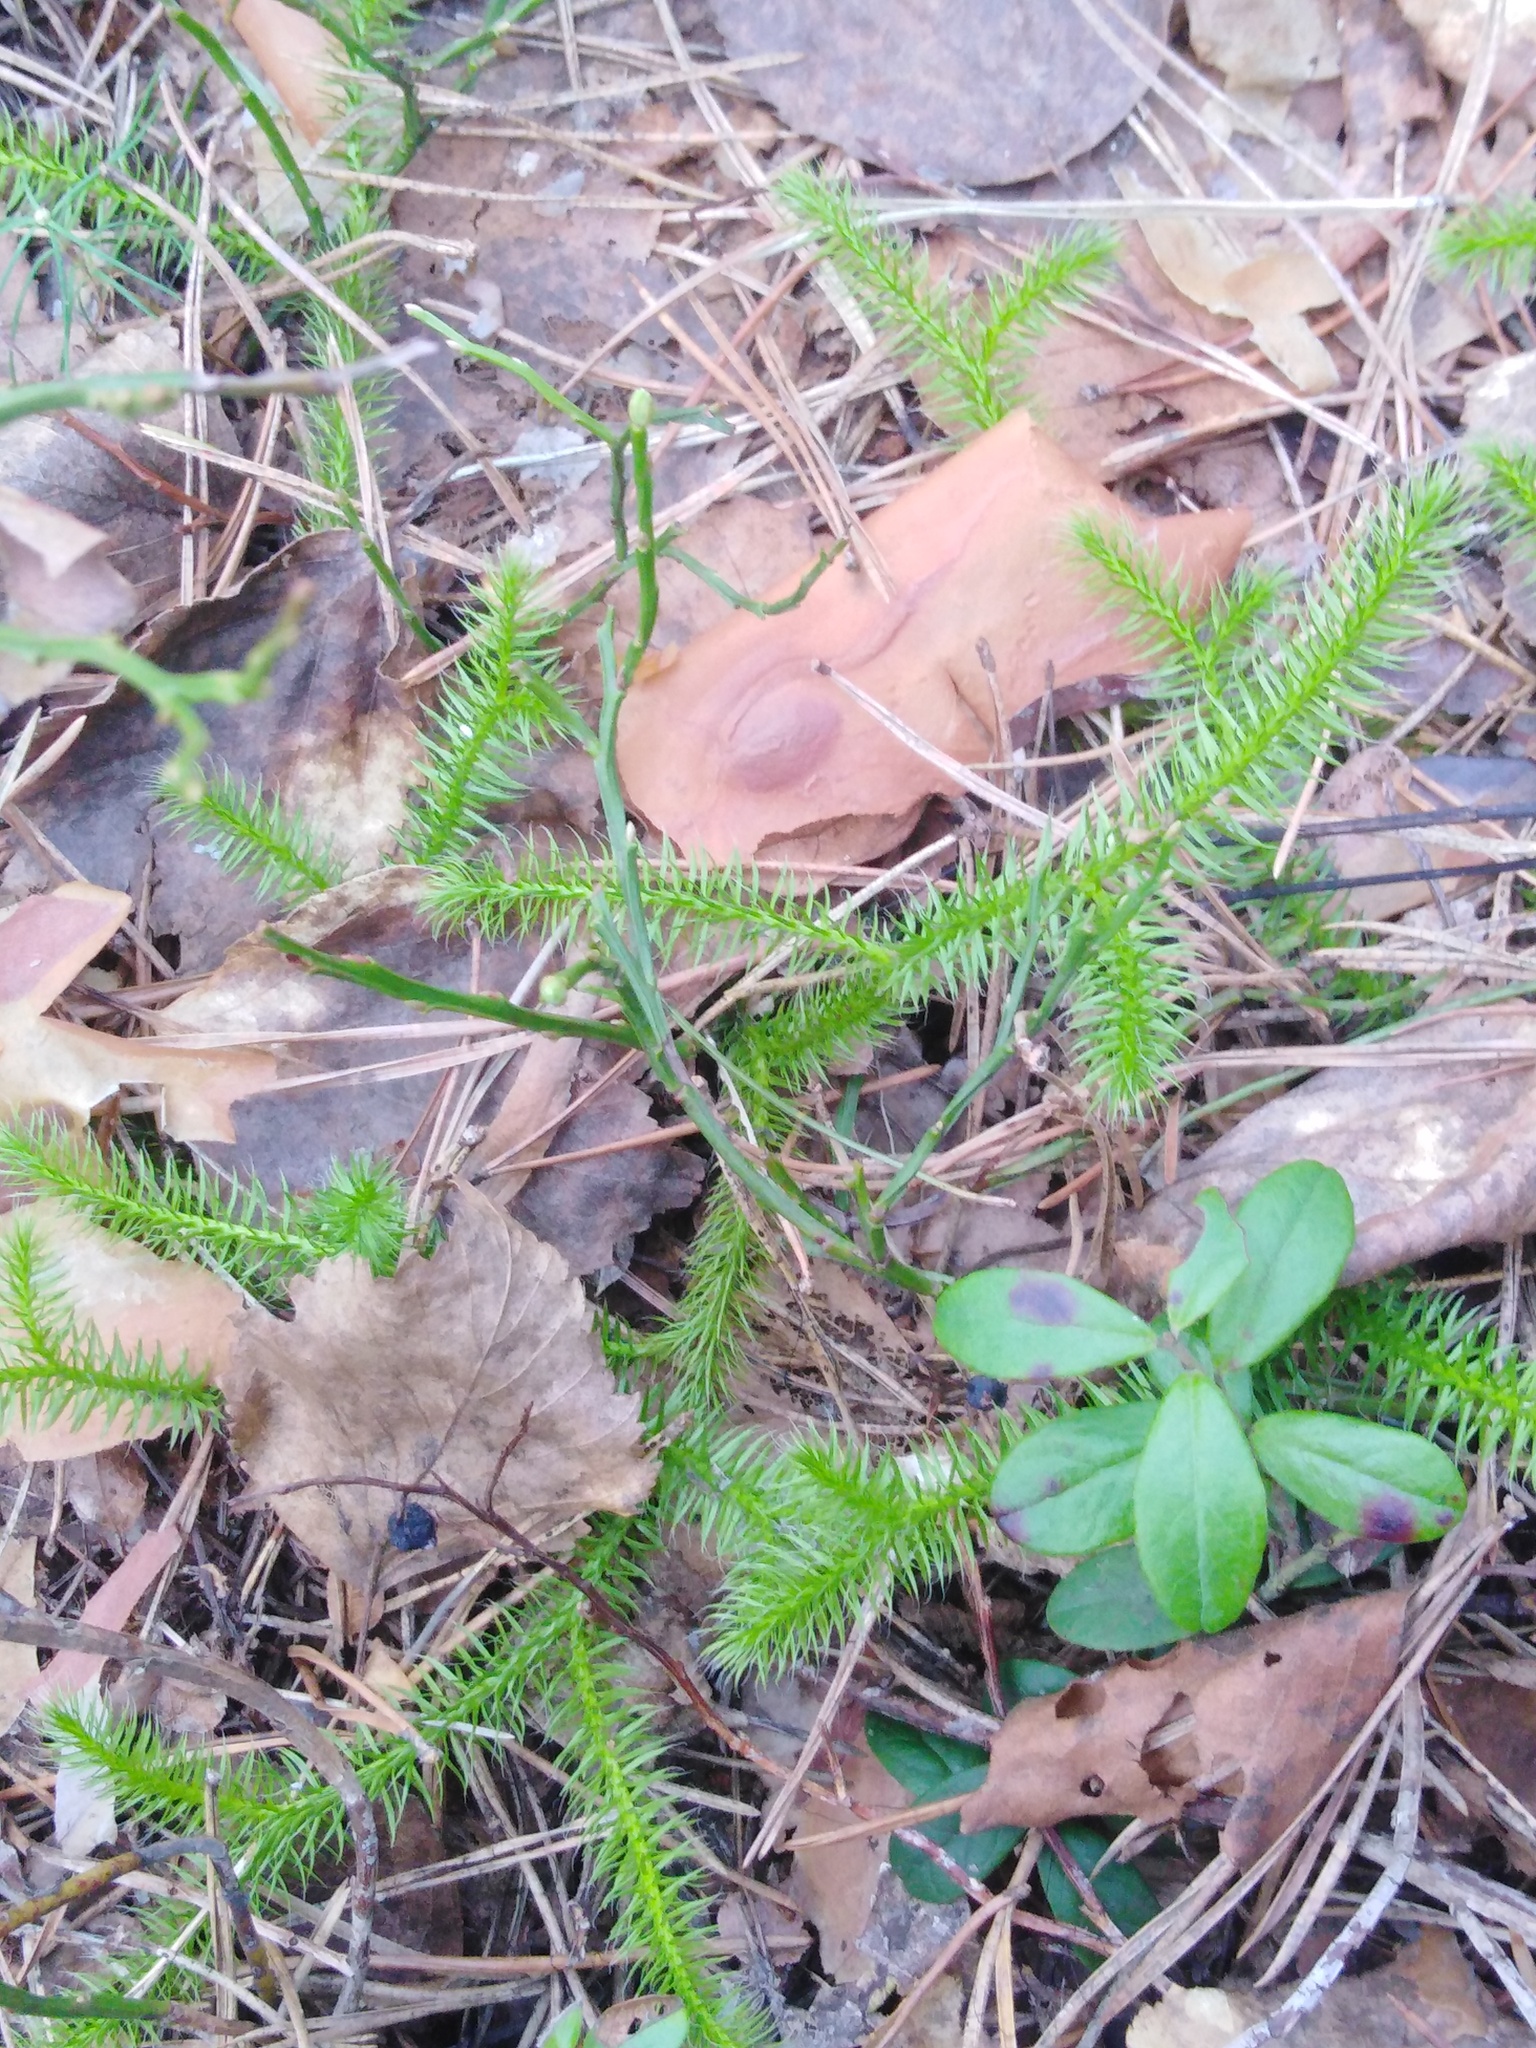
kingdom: Plantae
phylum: Tracheophyta
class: Lycopodiopsida
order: Lycopodiales
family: Lycopodiaceae
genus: Lycopodium
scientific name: Lycopodium clavatum
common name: Stag's-horn clubmoss
